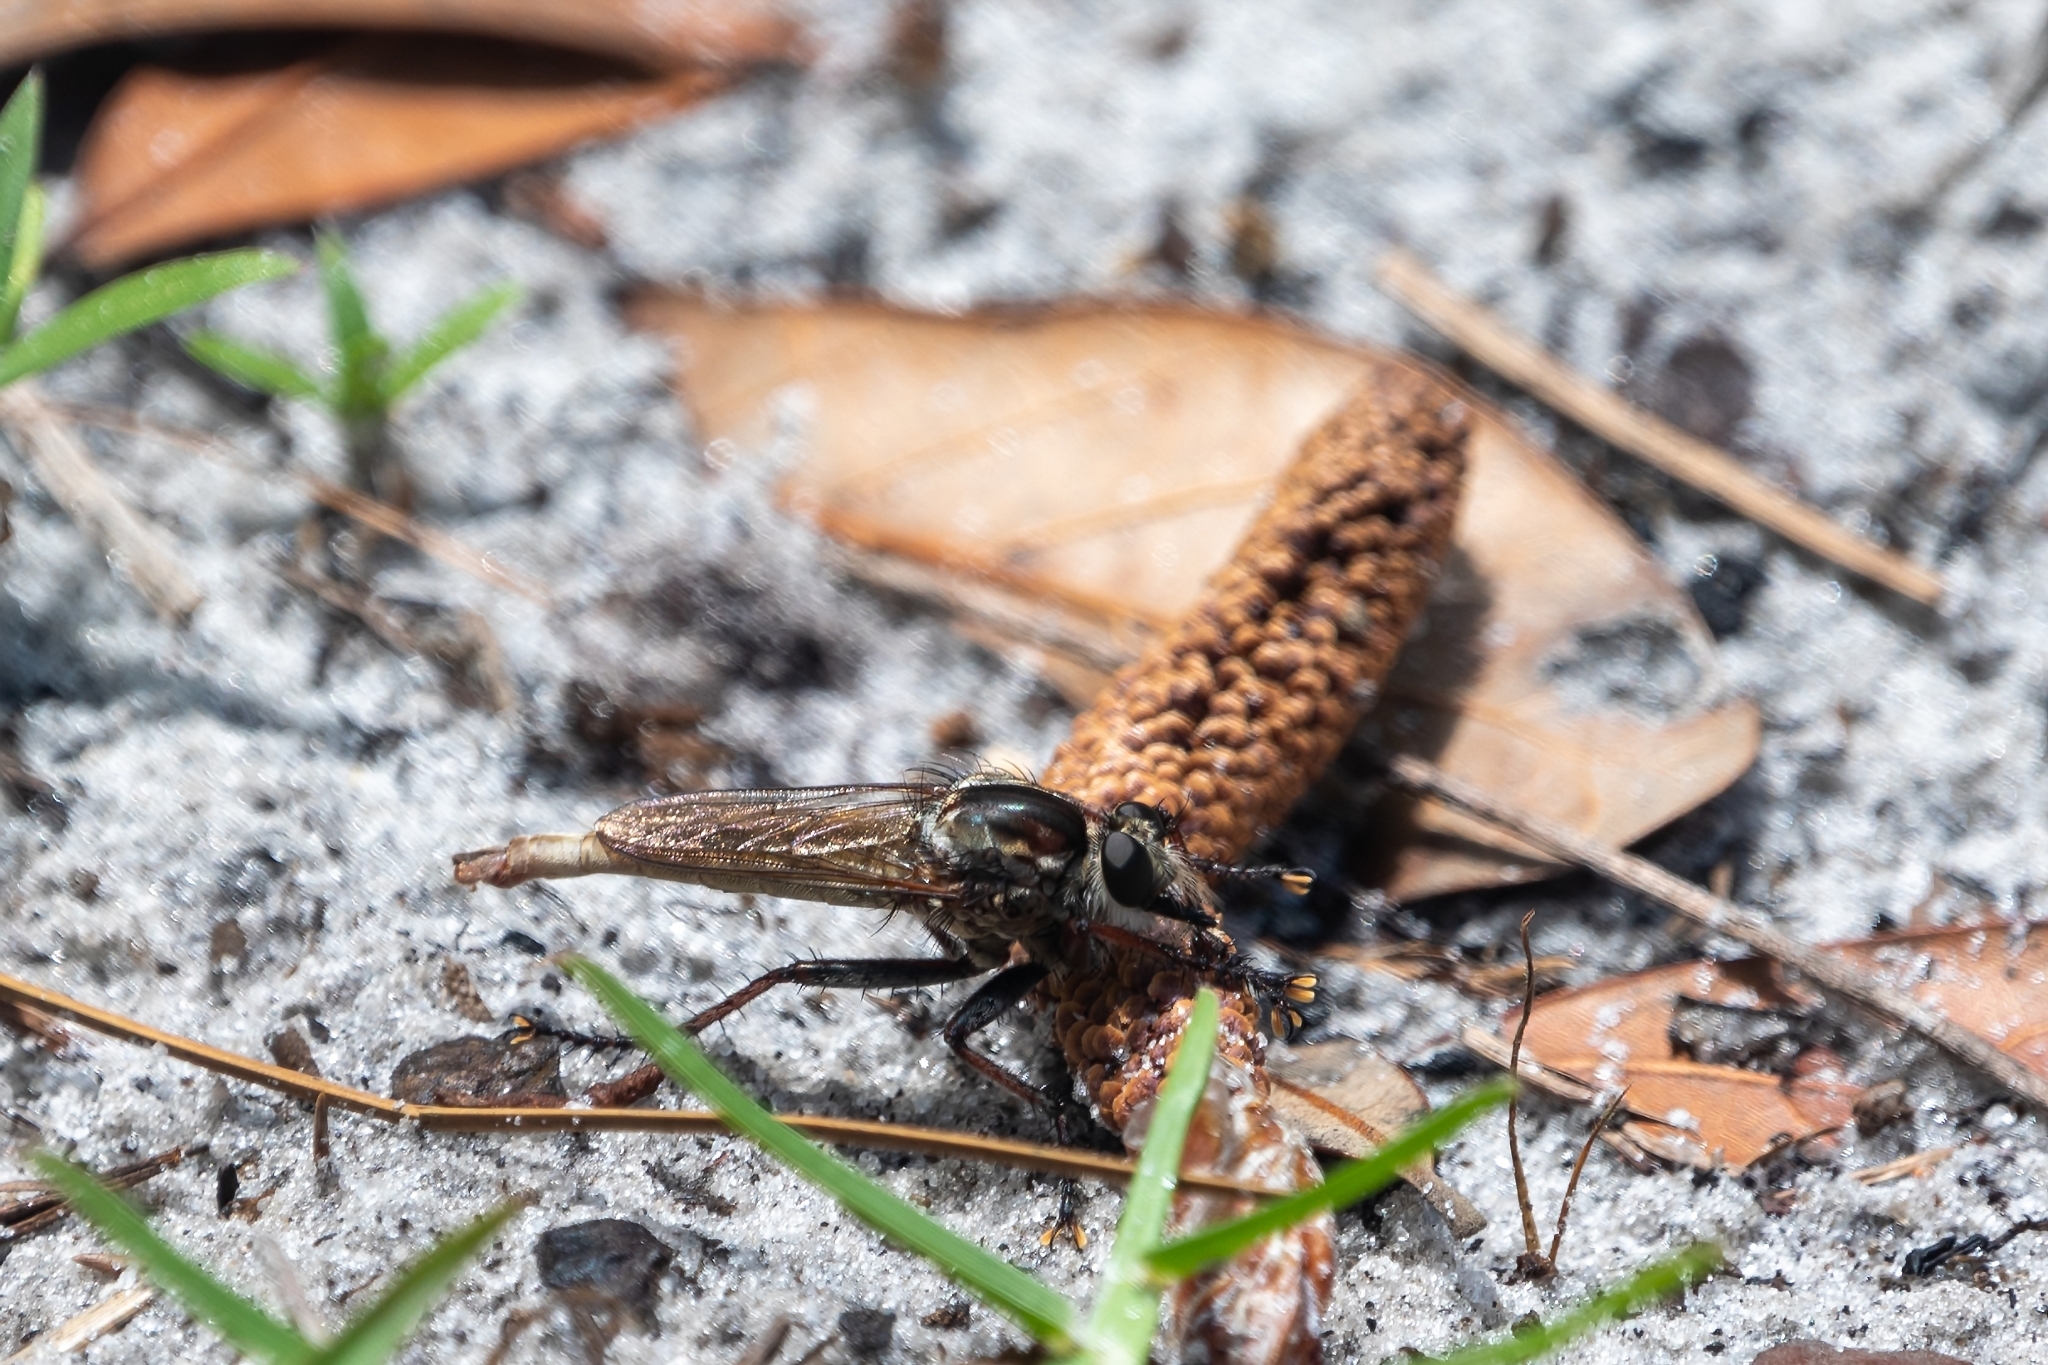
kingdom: Animalia
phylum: Arthropoda
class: Insecta
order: Diptera
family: Asilidae
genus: Proctacanthus
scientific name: Proctacanthus brevipennis
